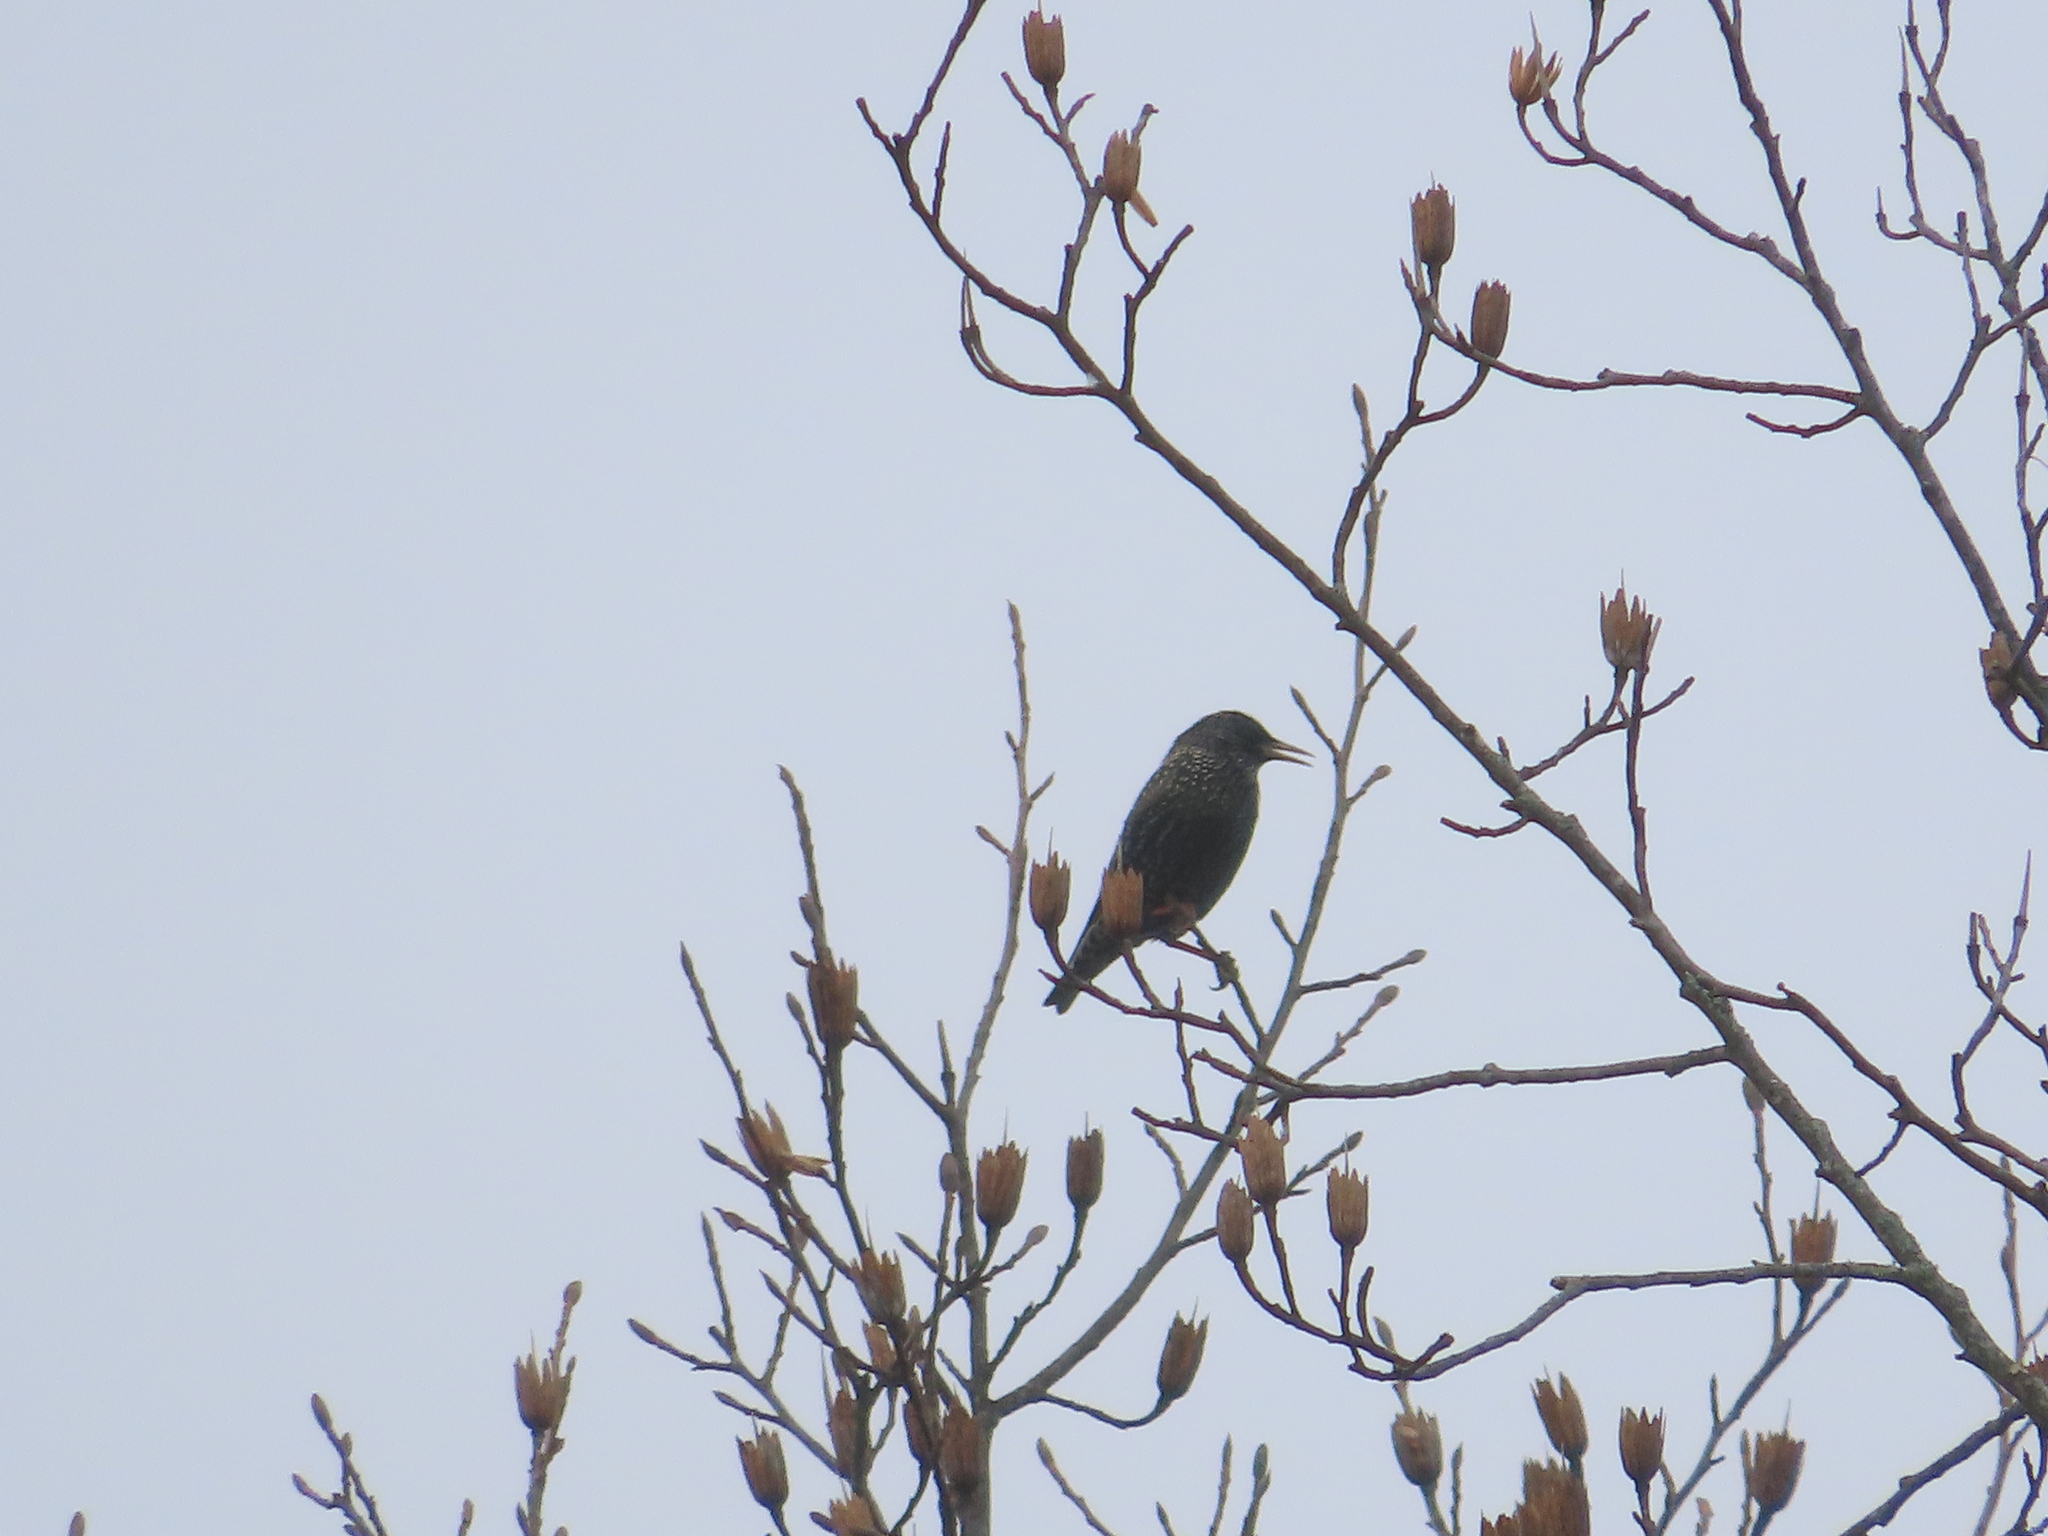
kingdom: Animalia
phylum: Chordata
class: Aves
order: Passeriformes
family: Sturnidae
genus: Sturnus
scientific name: Sturnus vulgaris
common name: Common starling
